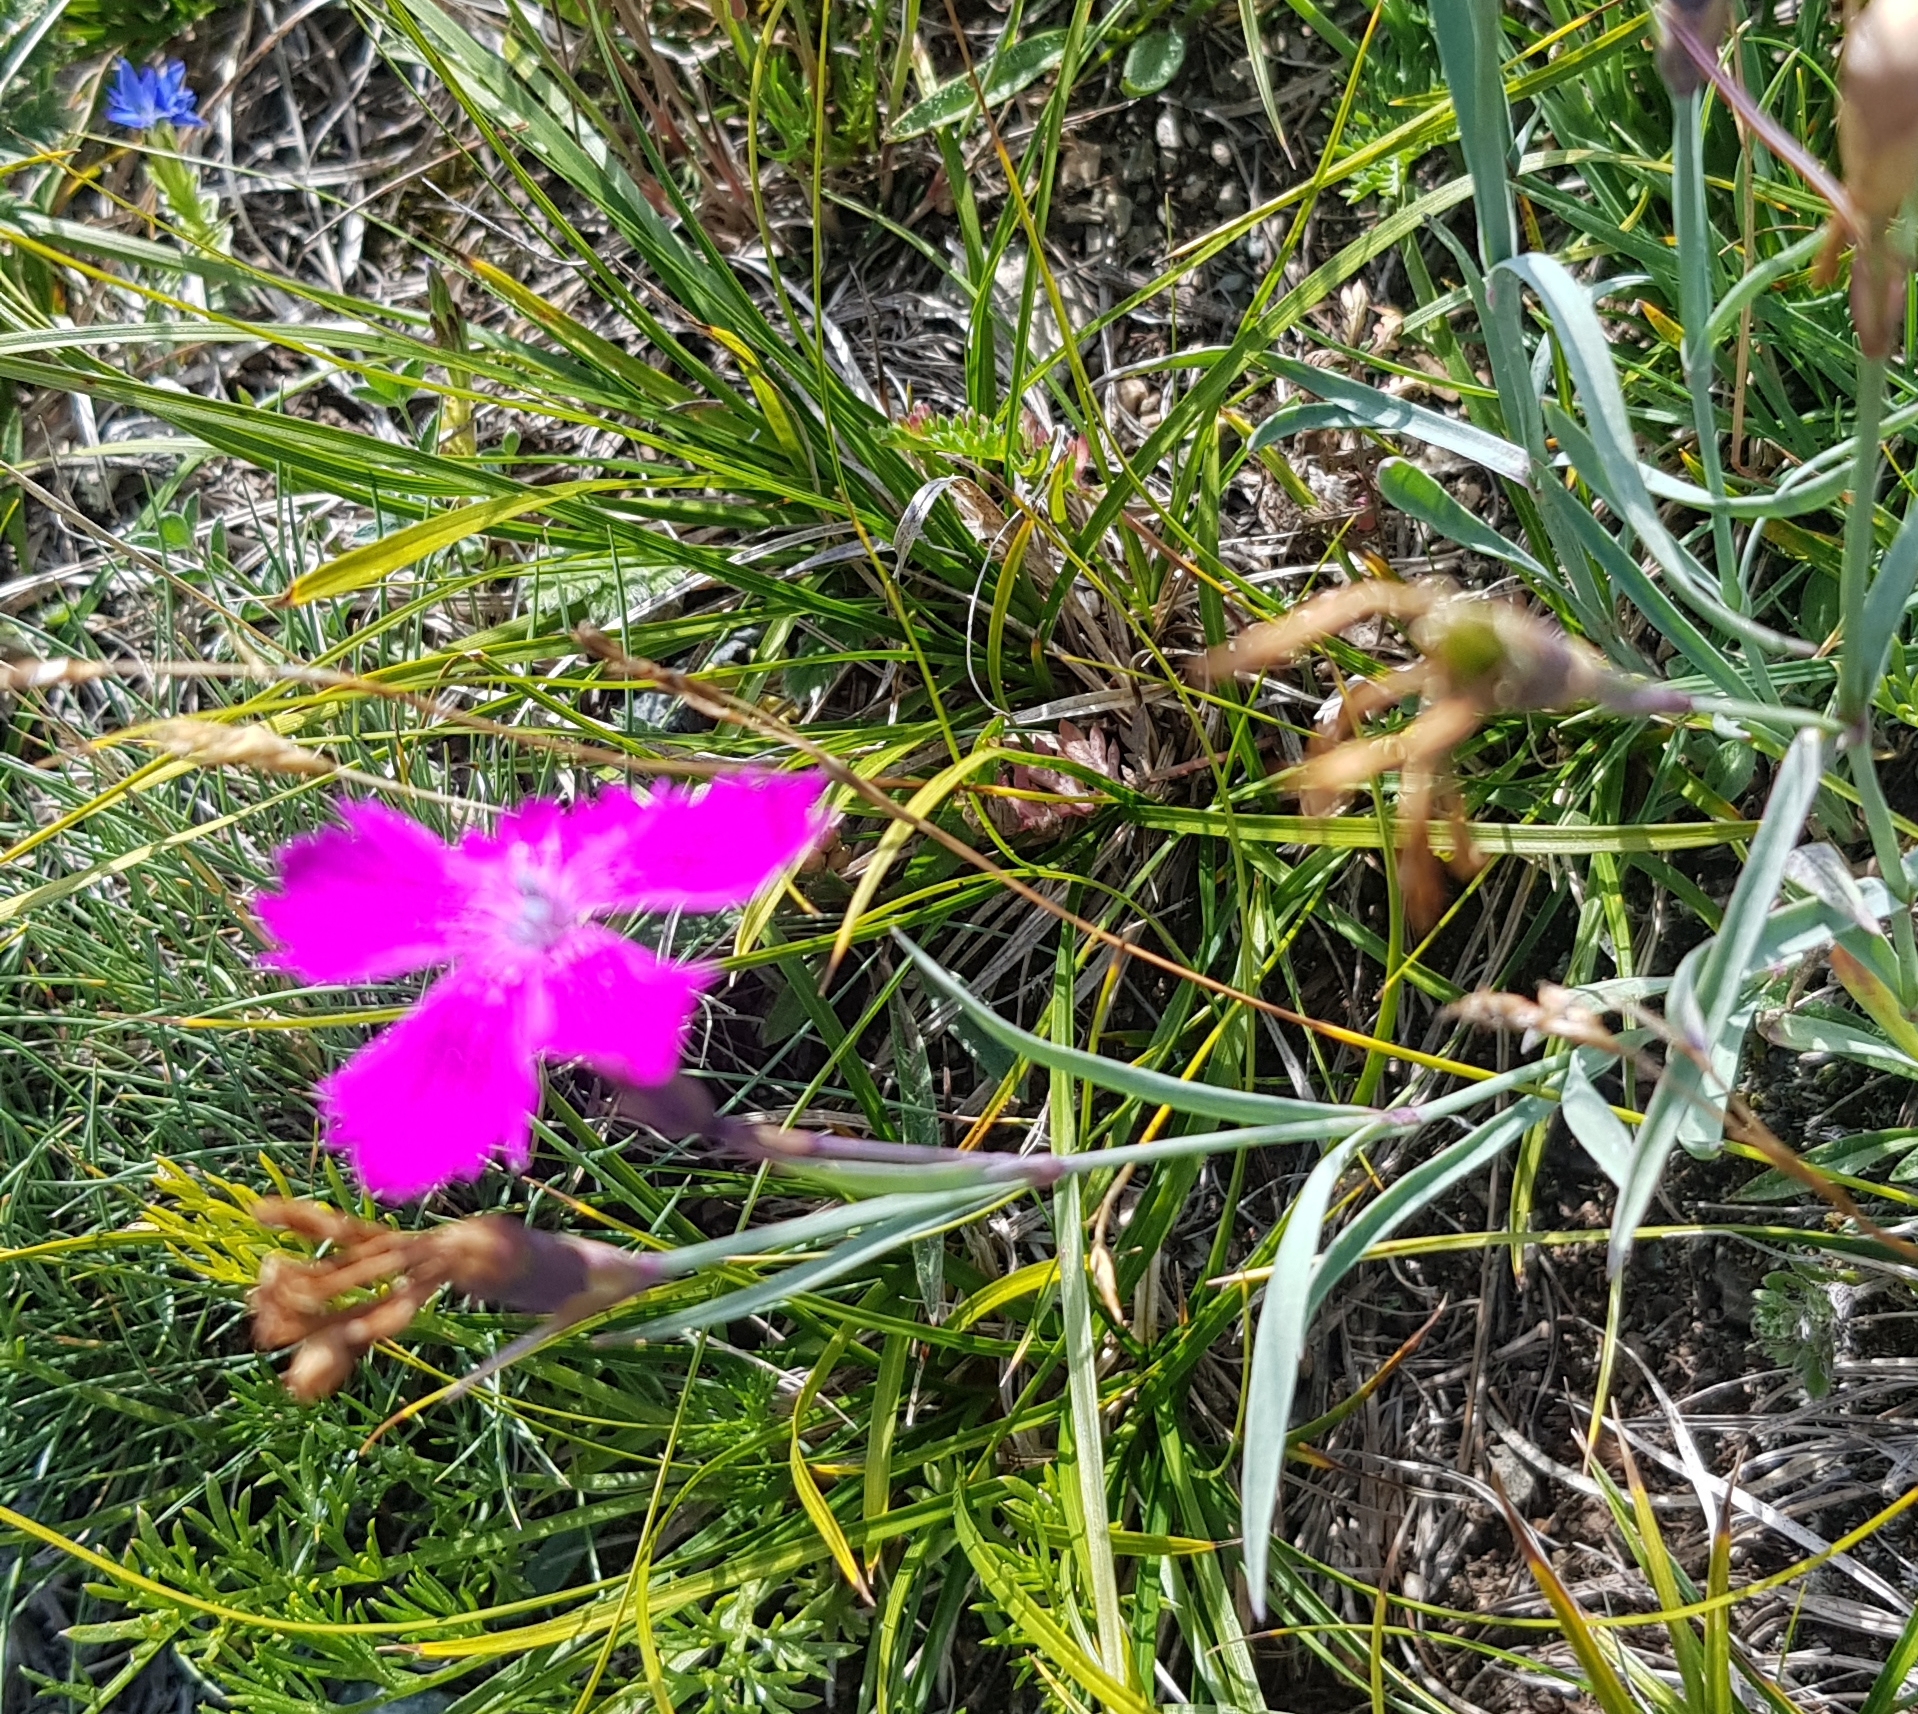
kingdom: Plantae
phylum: Tracheophyta
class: Magnoliopsida
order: Caryophyllales
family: Caryophyllaceae
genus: Dianthus
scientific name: Dianthus chinensis
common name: Rainbow pink
